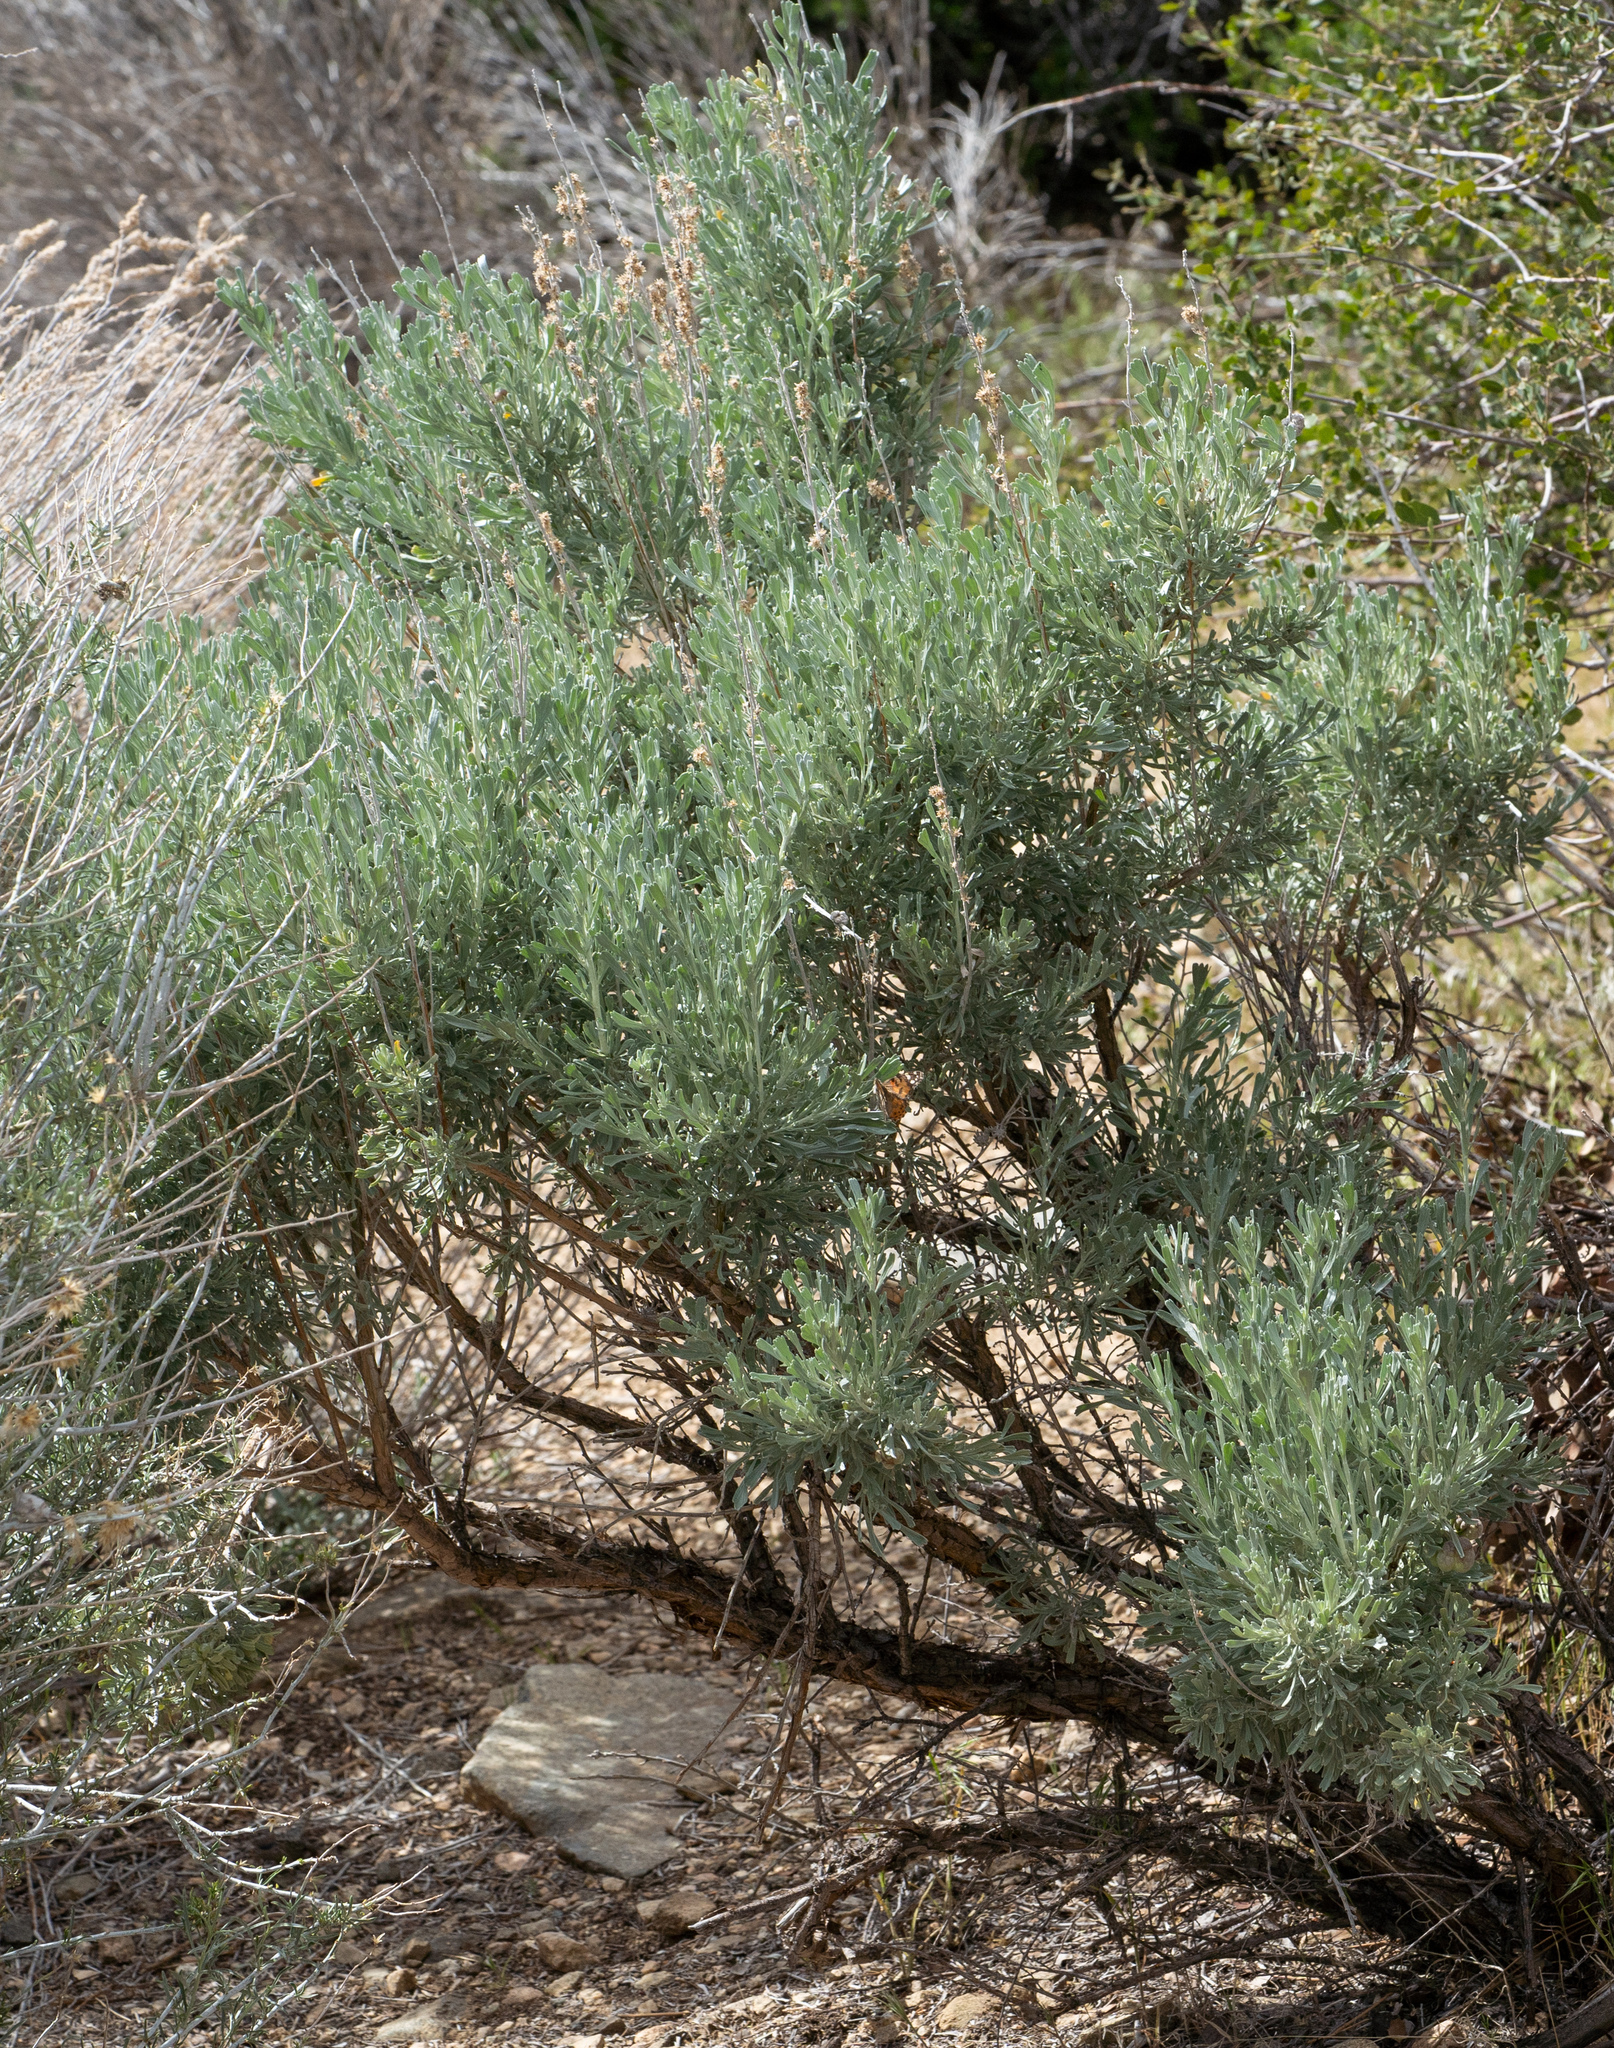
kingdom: Plantae
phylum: Tracheophyta
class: Magnoliopsida
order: Asterales
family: Asteraceae
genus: Artemisia
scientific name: Artemisia tridentata
